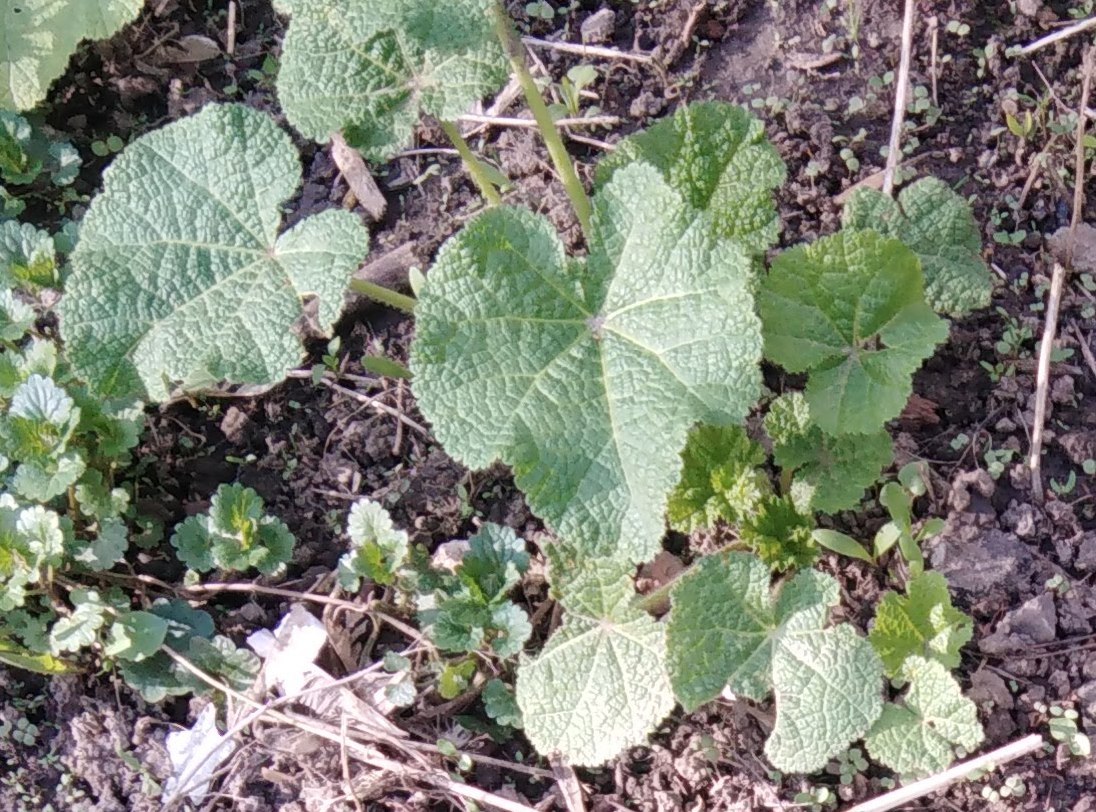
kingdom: Plantae
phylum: Tracheophyta
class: Magnoliopsida
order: Malvales
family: Malvaceae
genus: Alcea
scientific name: Alcea rosea
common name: Hollyhock
